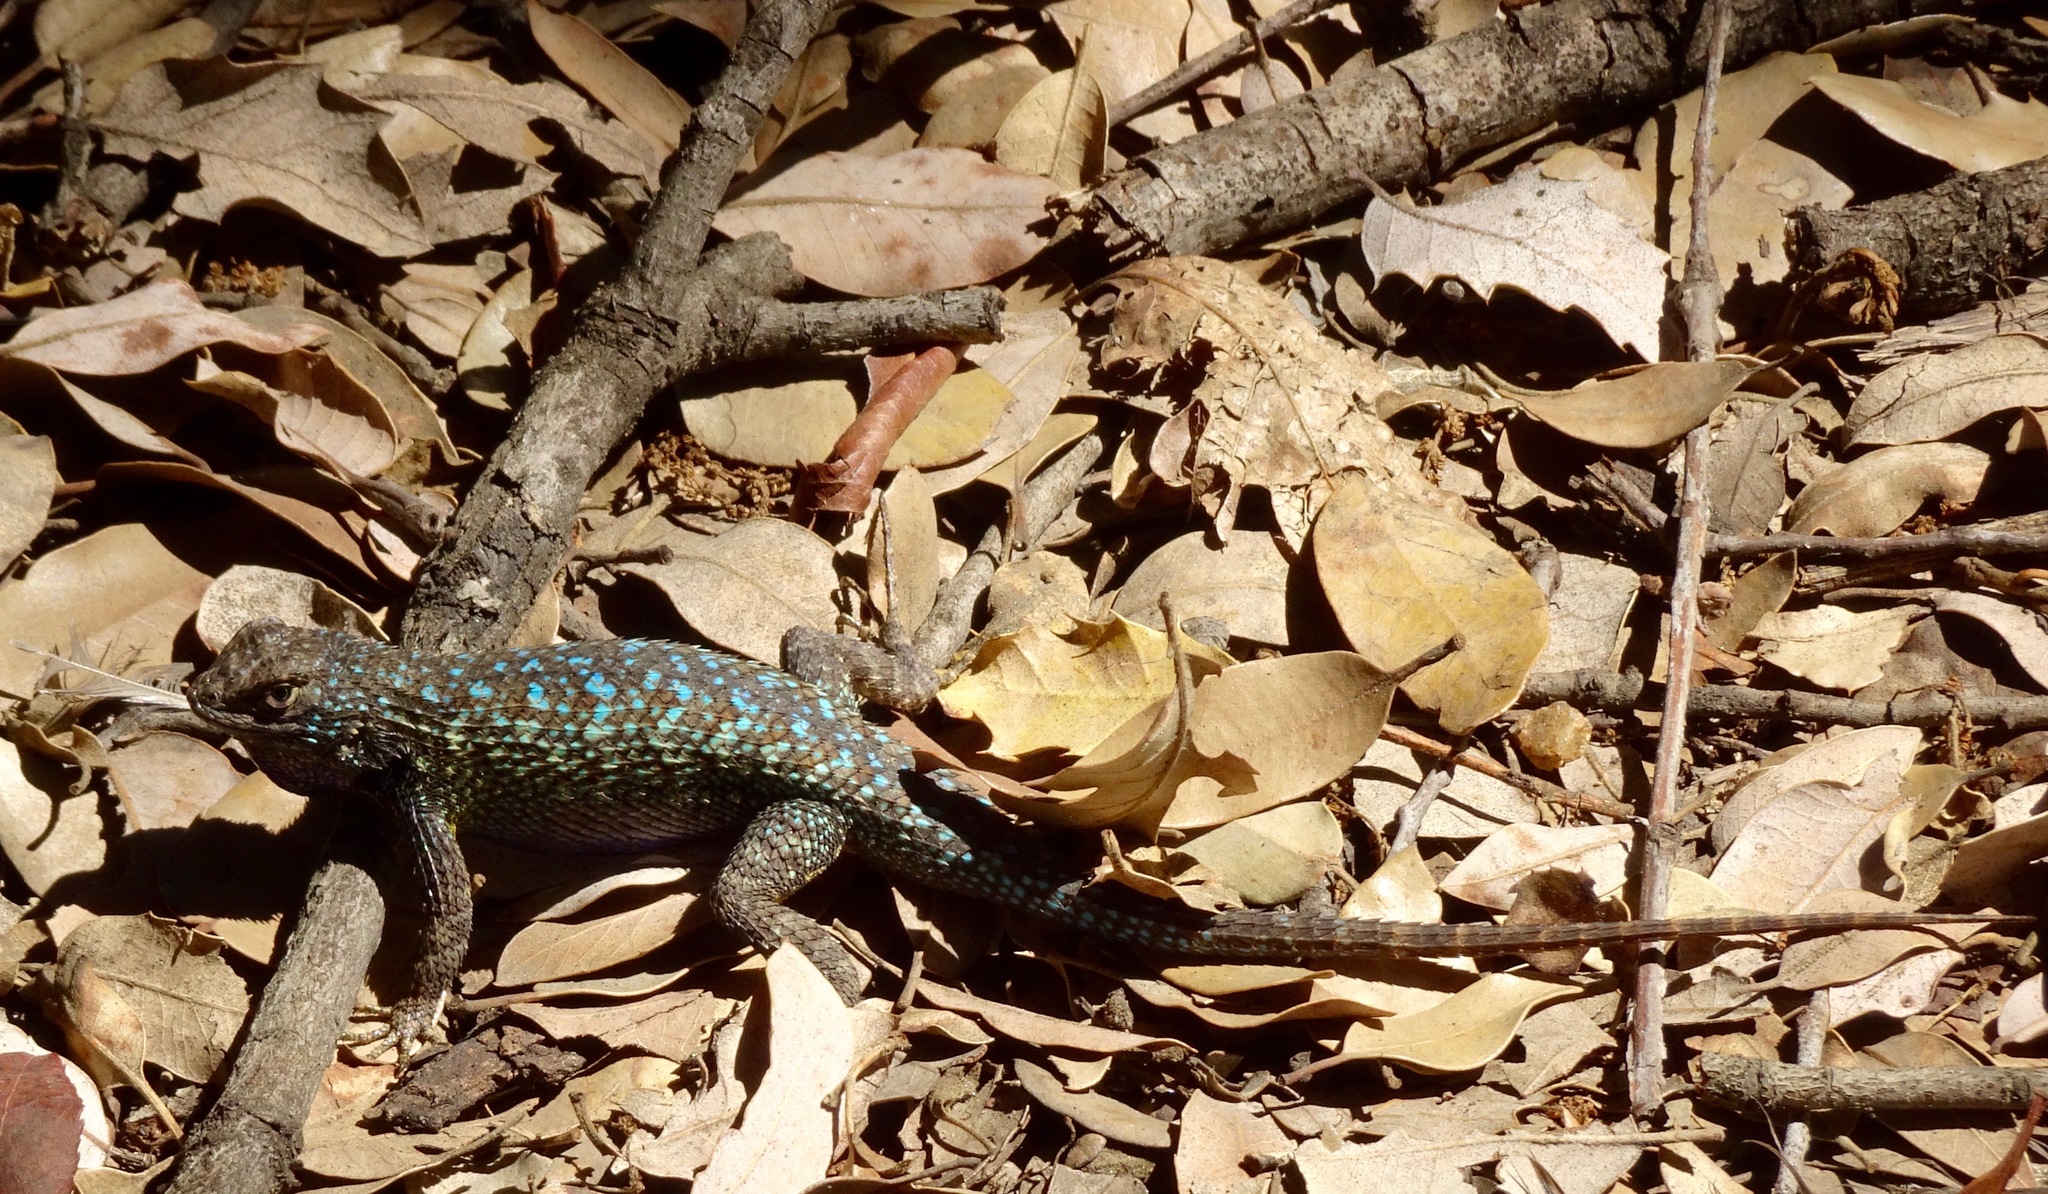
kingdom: Animalia
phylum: Chordata
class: Squamata
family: Phrynosomatidae
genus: Sceloporus
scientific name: Sceloporus occidentalis
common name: Western fence lizard
